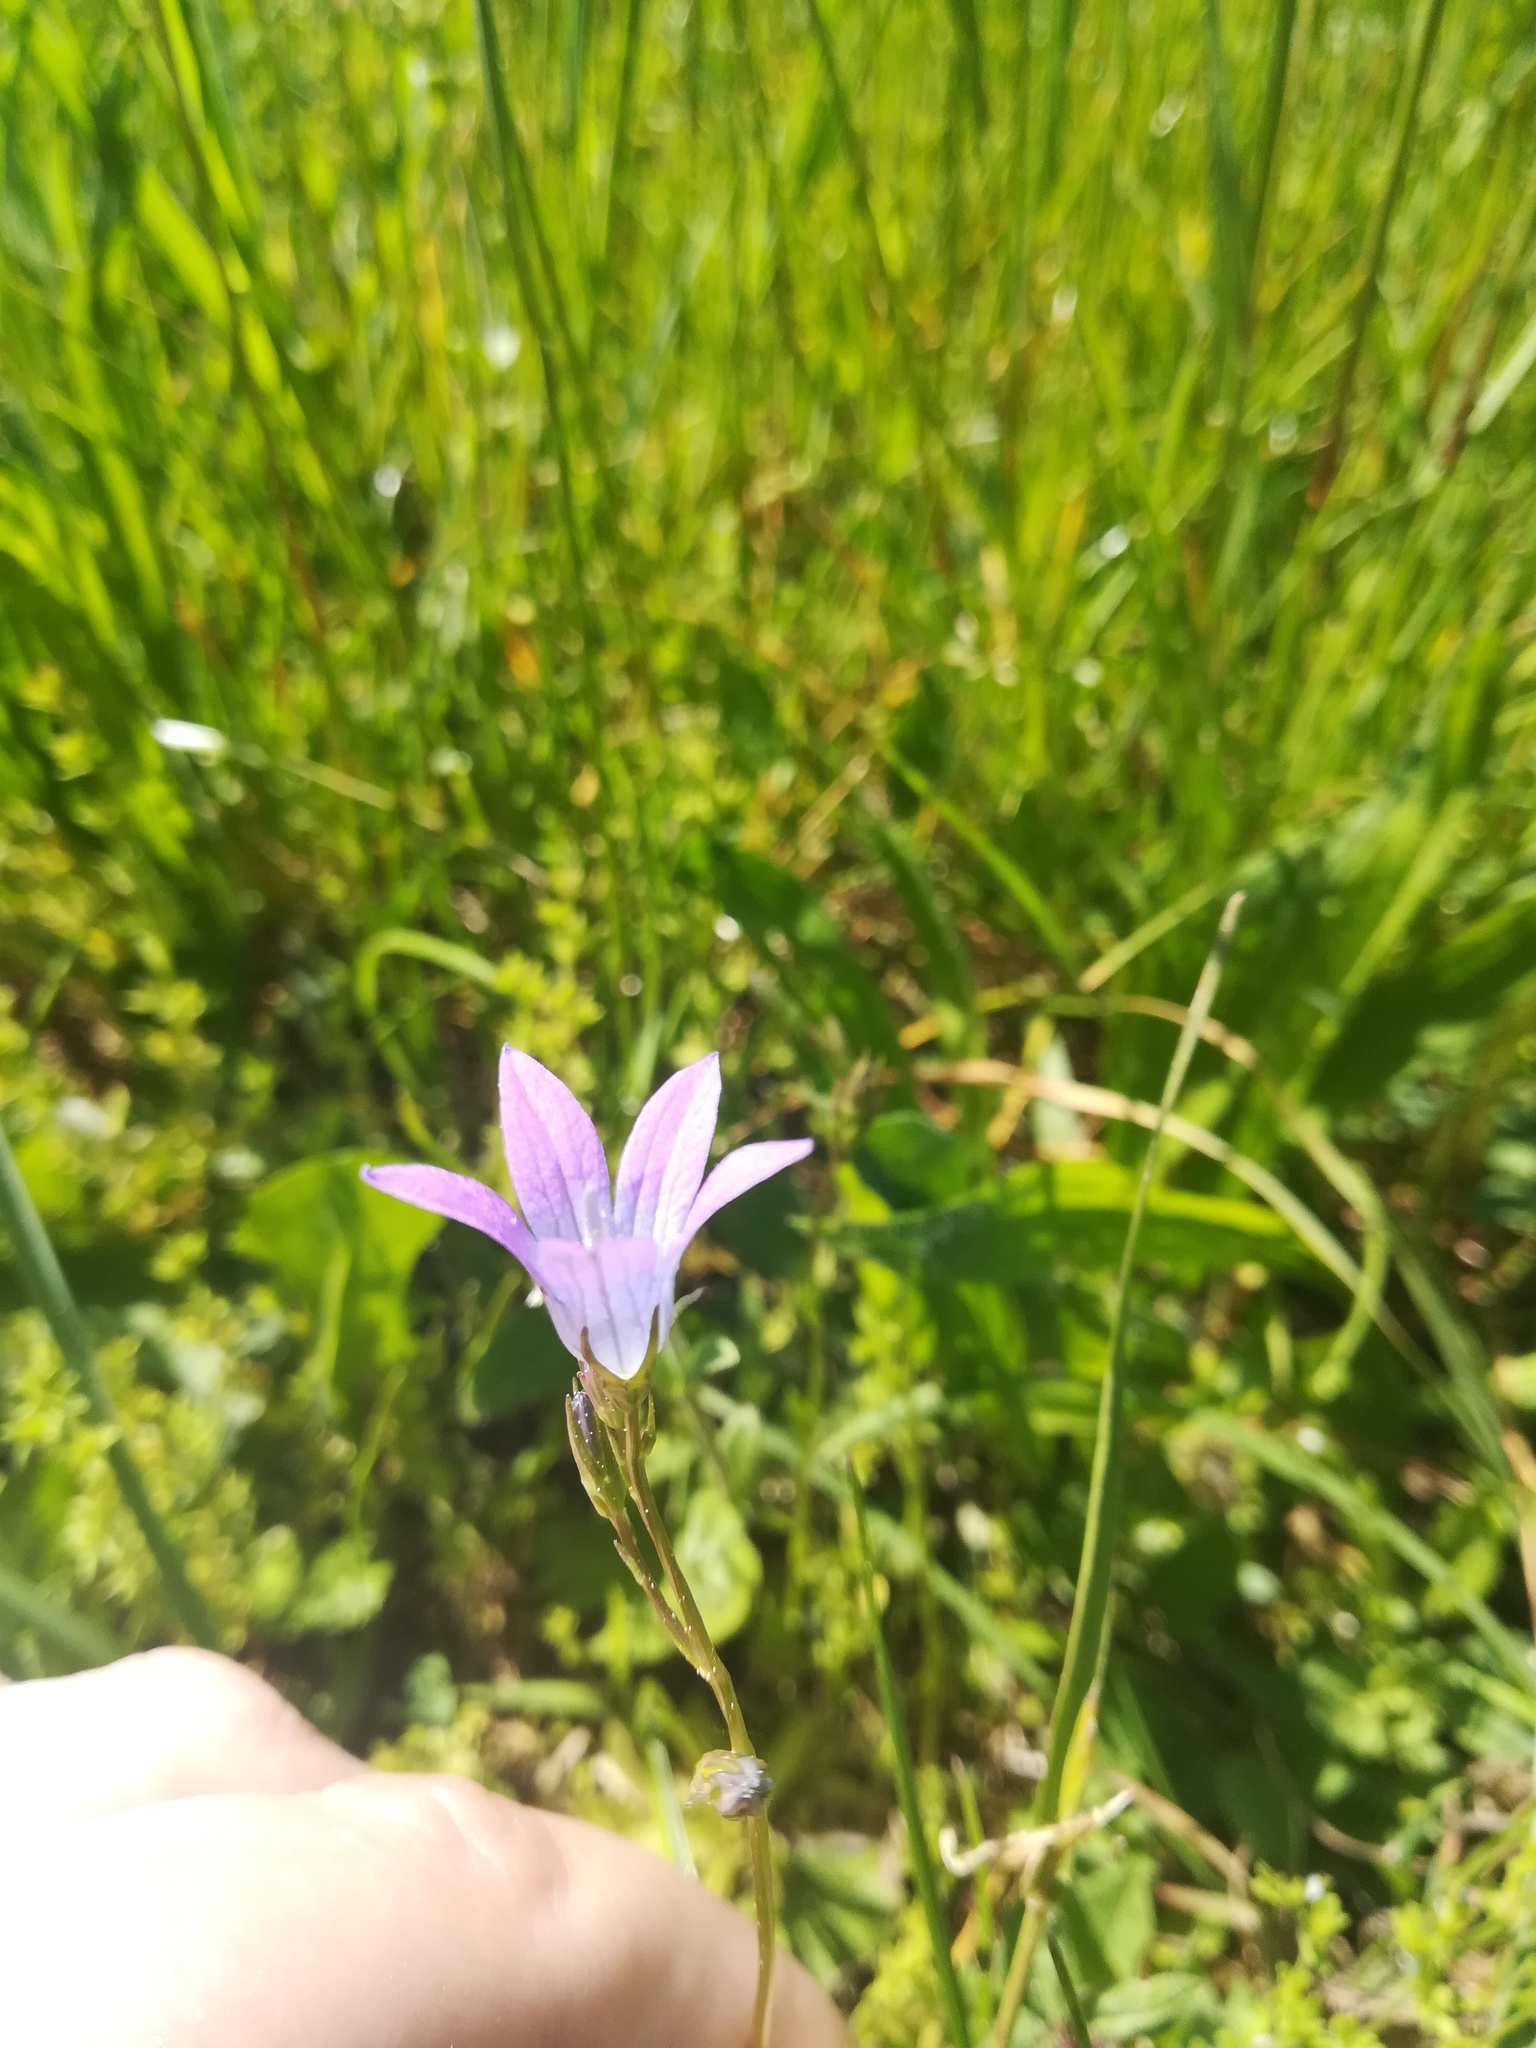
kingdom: Plantae
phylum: Tracheophyta
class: Magnoliopsida
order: Asterales
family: Campanulaceae
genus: Campanula
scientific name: Campanula patula
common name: Spreading bellflower
